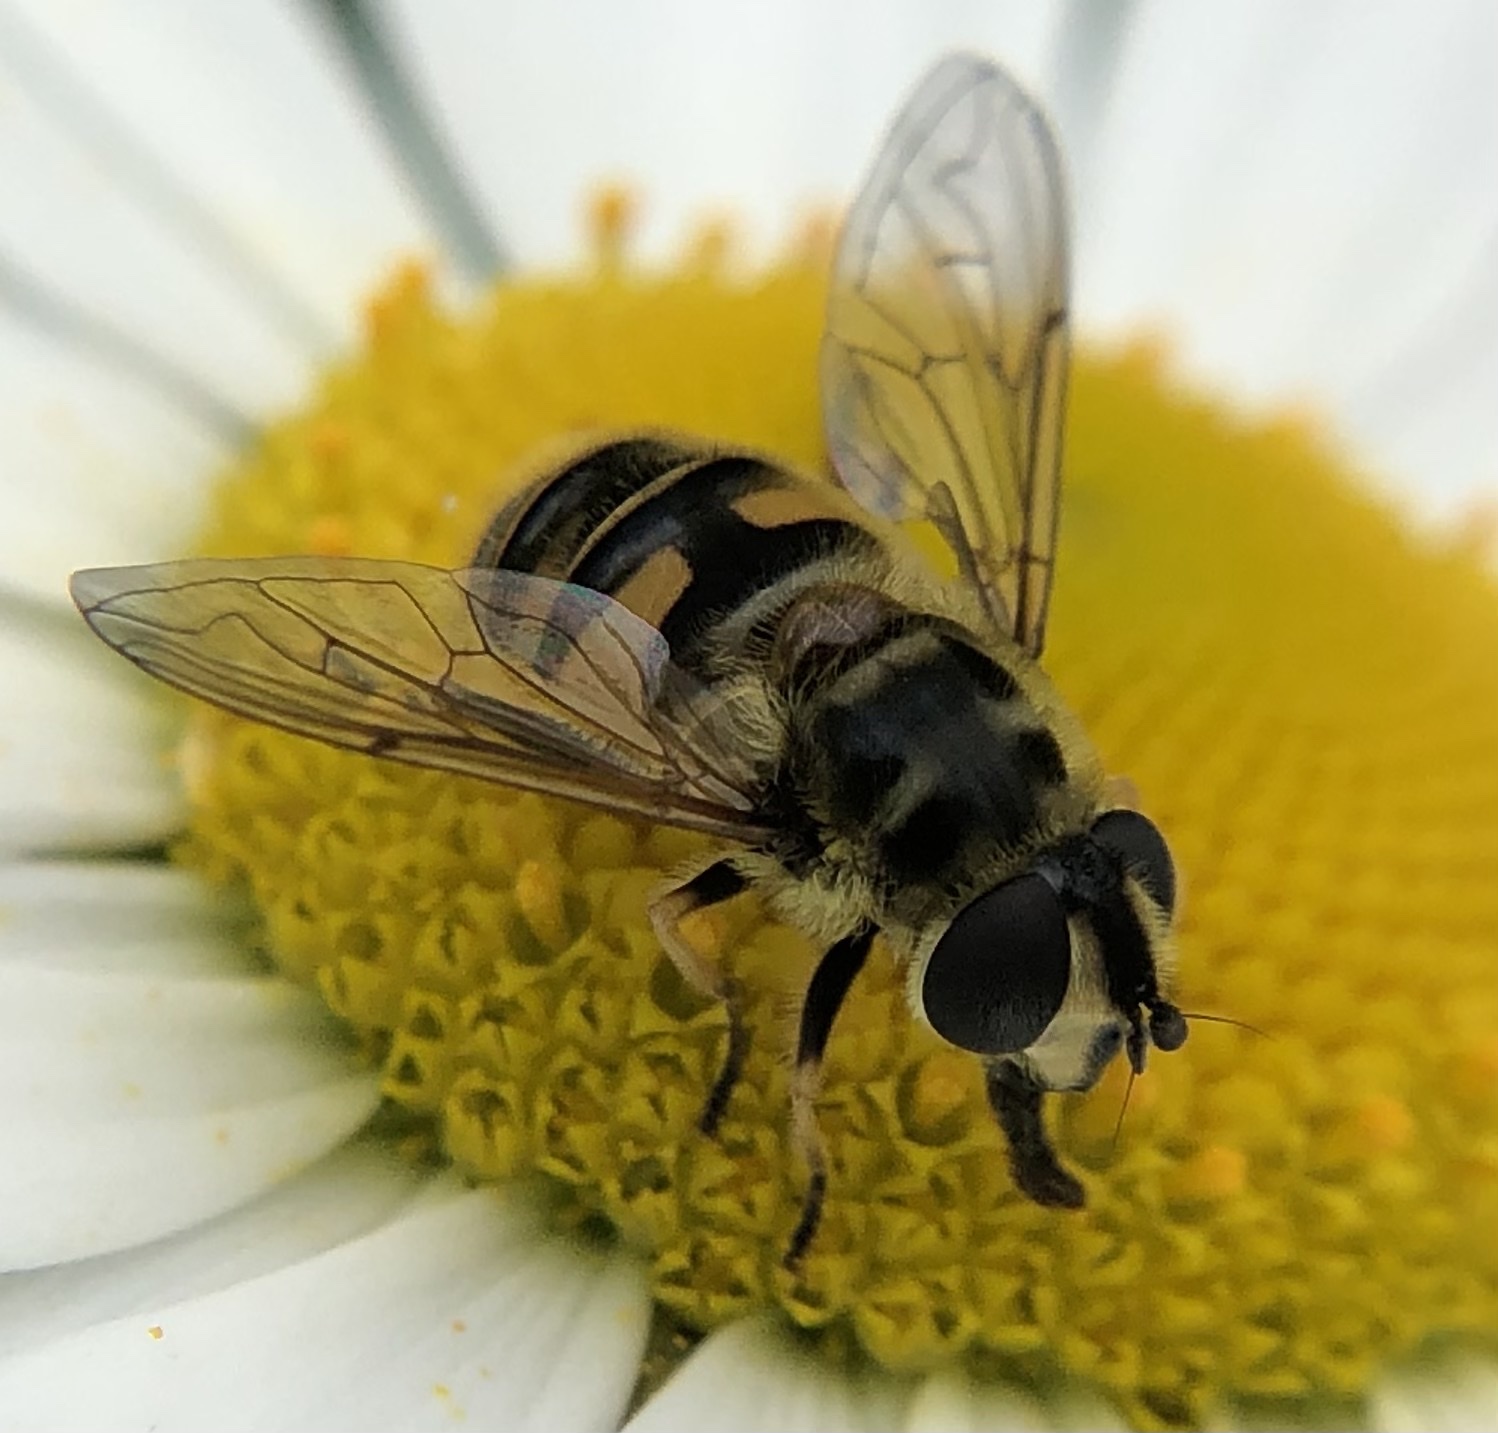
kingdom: Animalia
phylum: Arthropoda
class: Insecta
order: Diptera
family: Syrphidae
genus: Myathropa
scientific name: Myathropa florea
